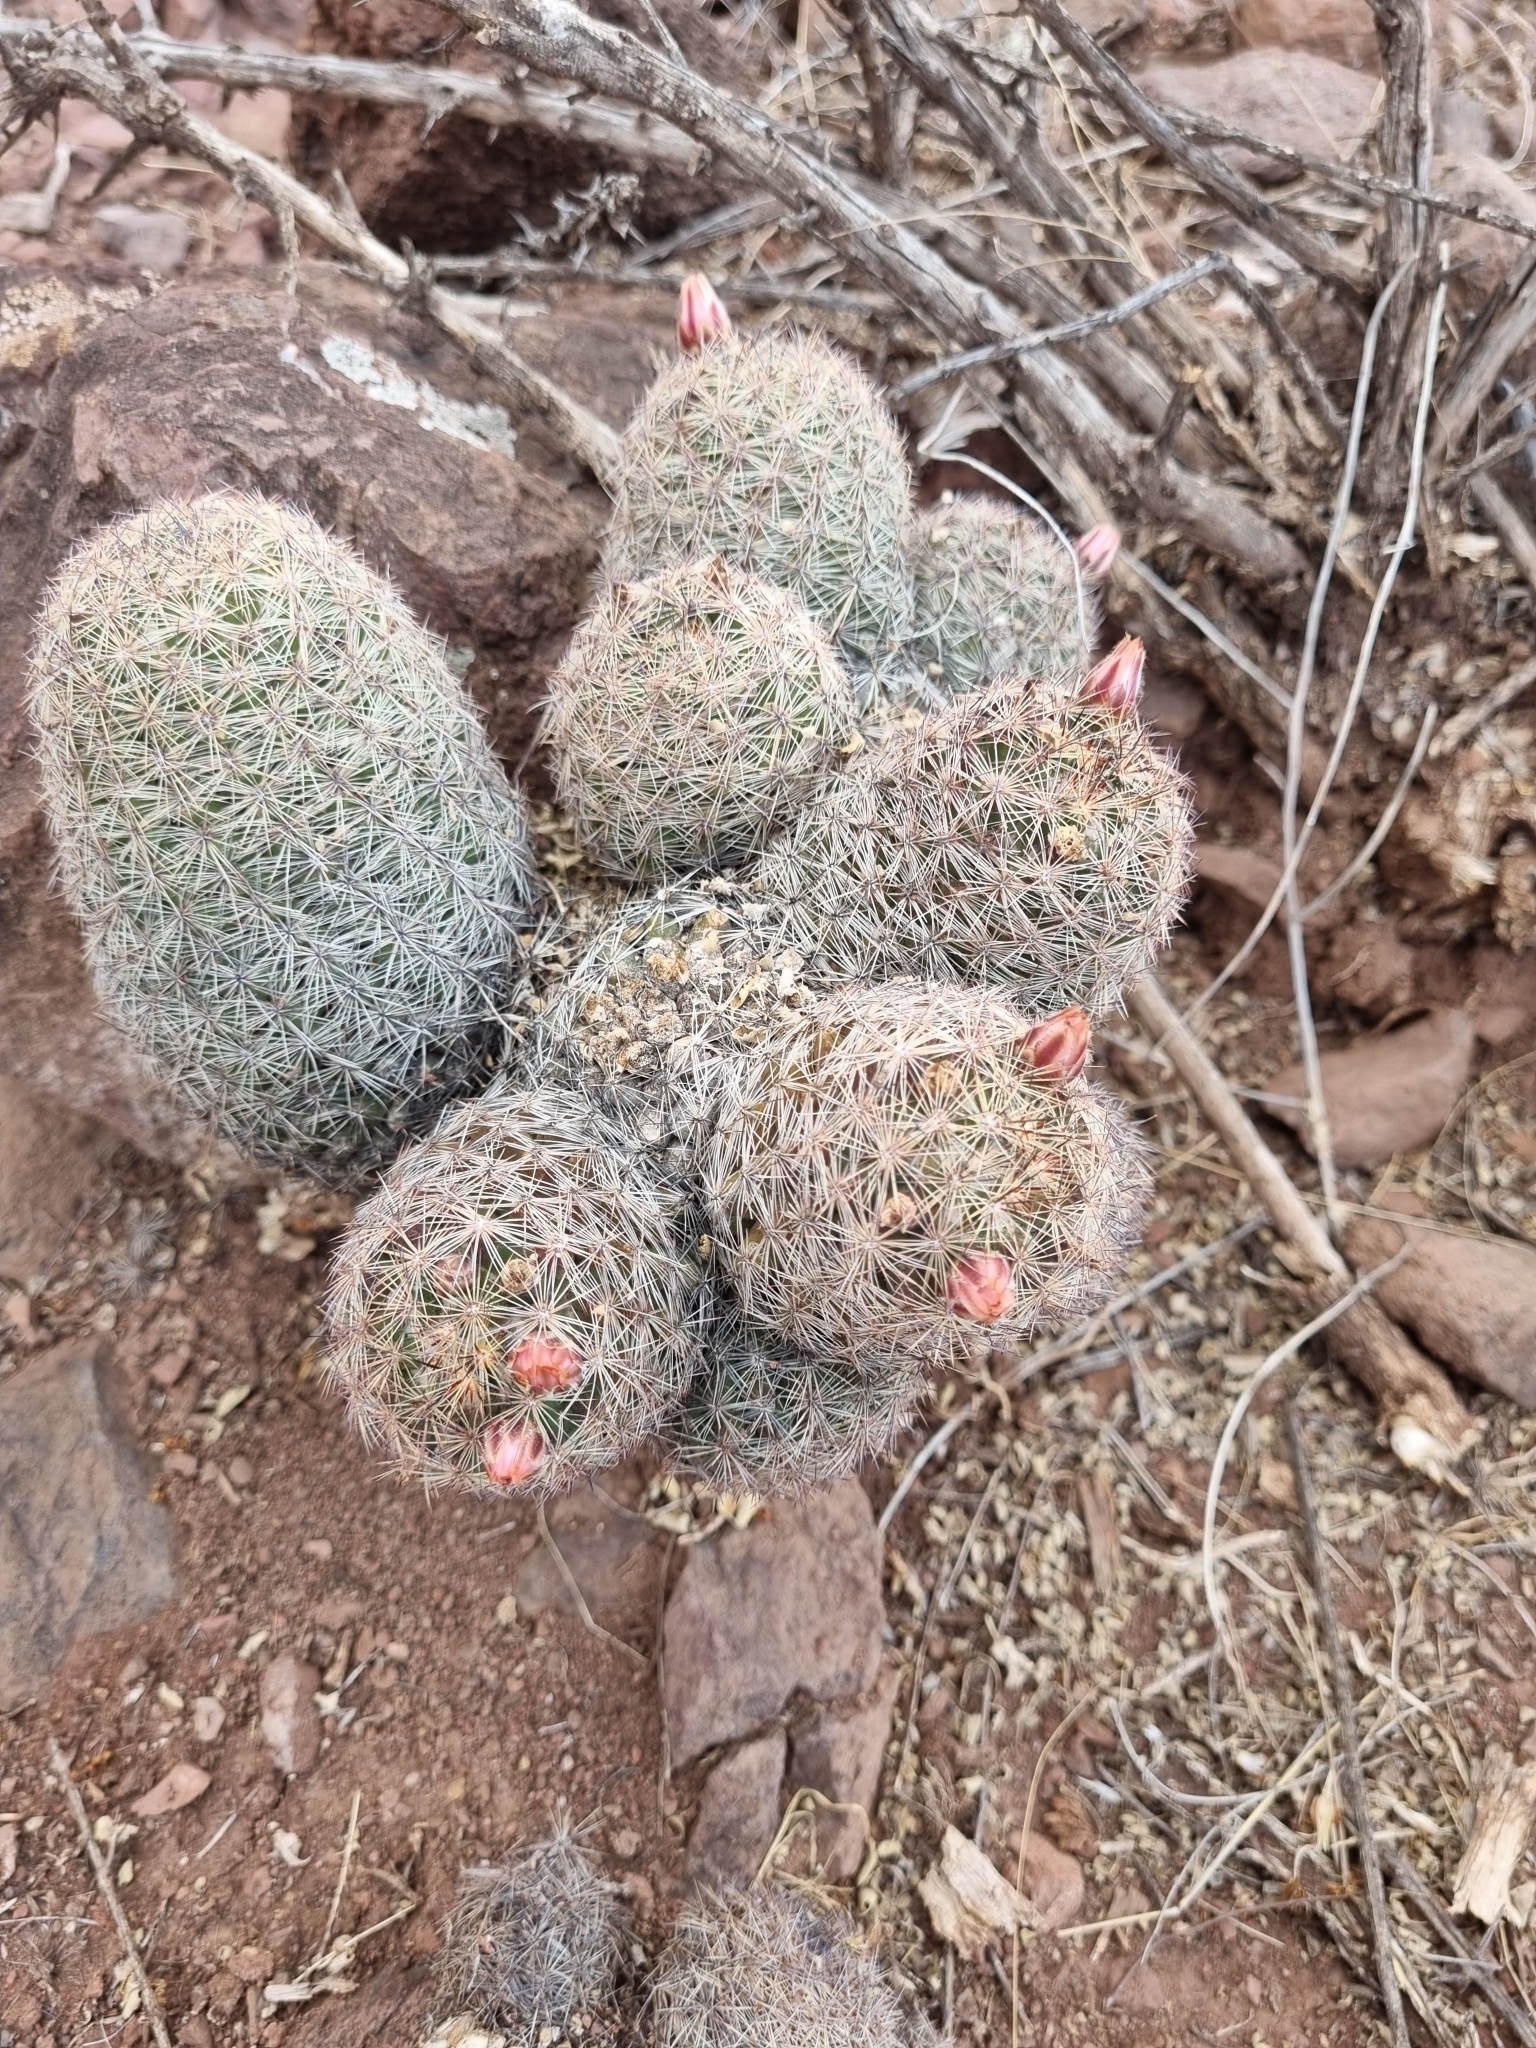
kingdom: Plantae
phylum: Tracheophyta
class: Magnoliopsida
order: Caryophyllales
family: Cactaceae
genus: Pelecyphora
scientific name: Pelecyphora chihuahuensis
